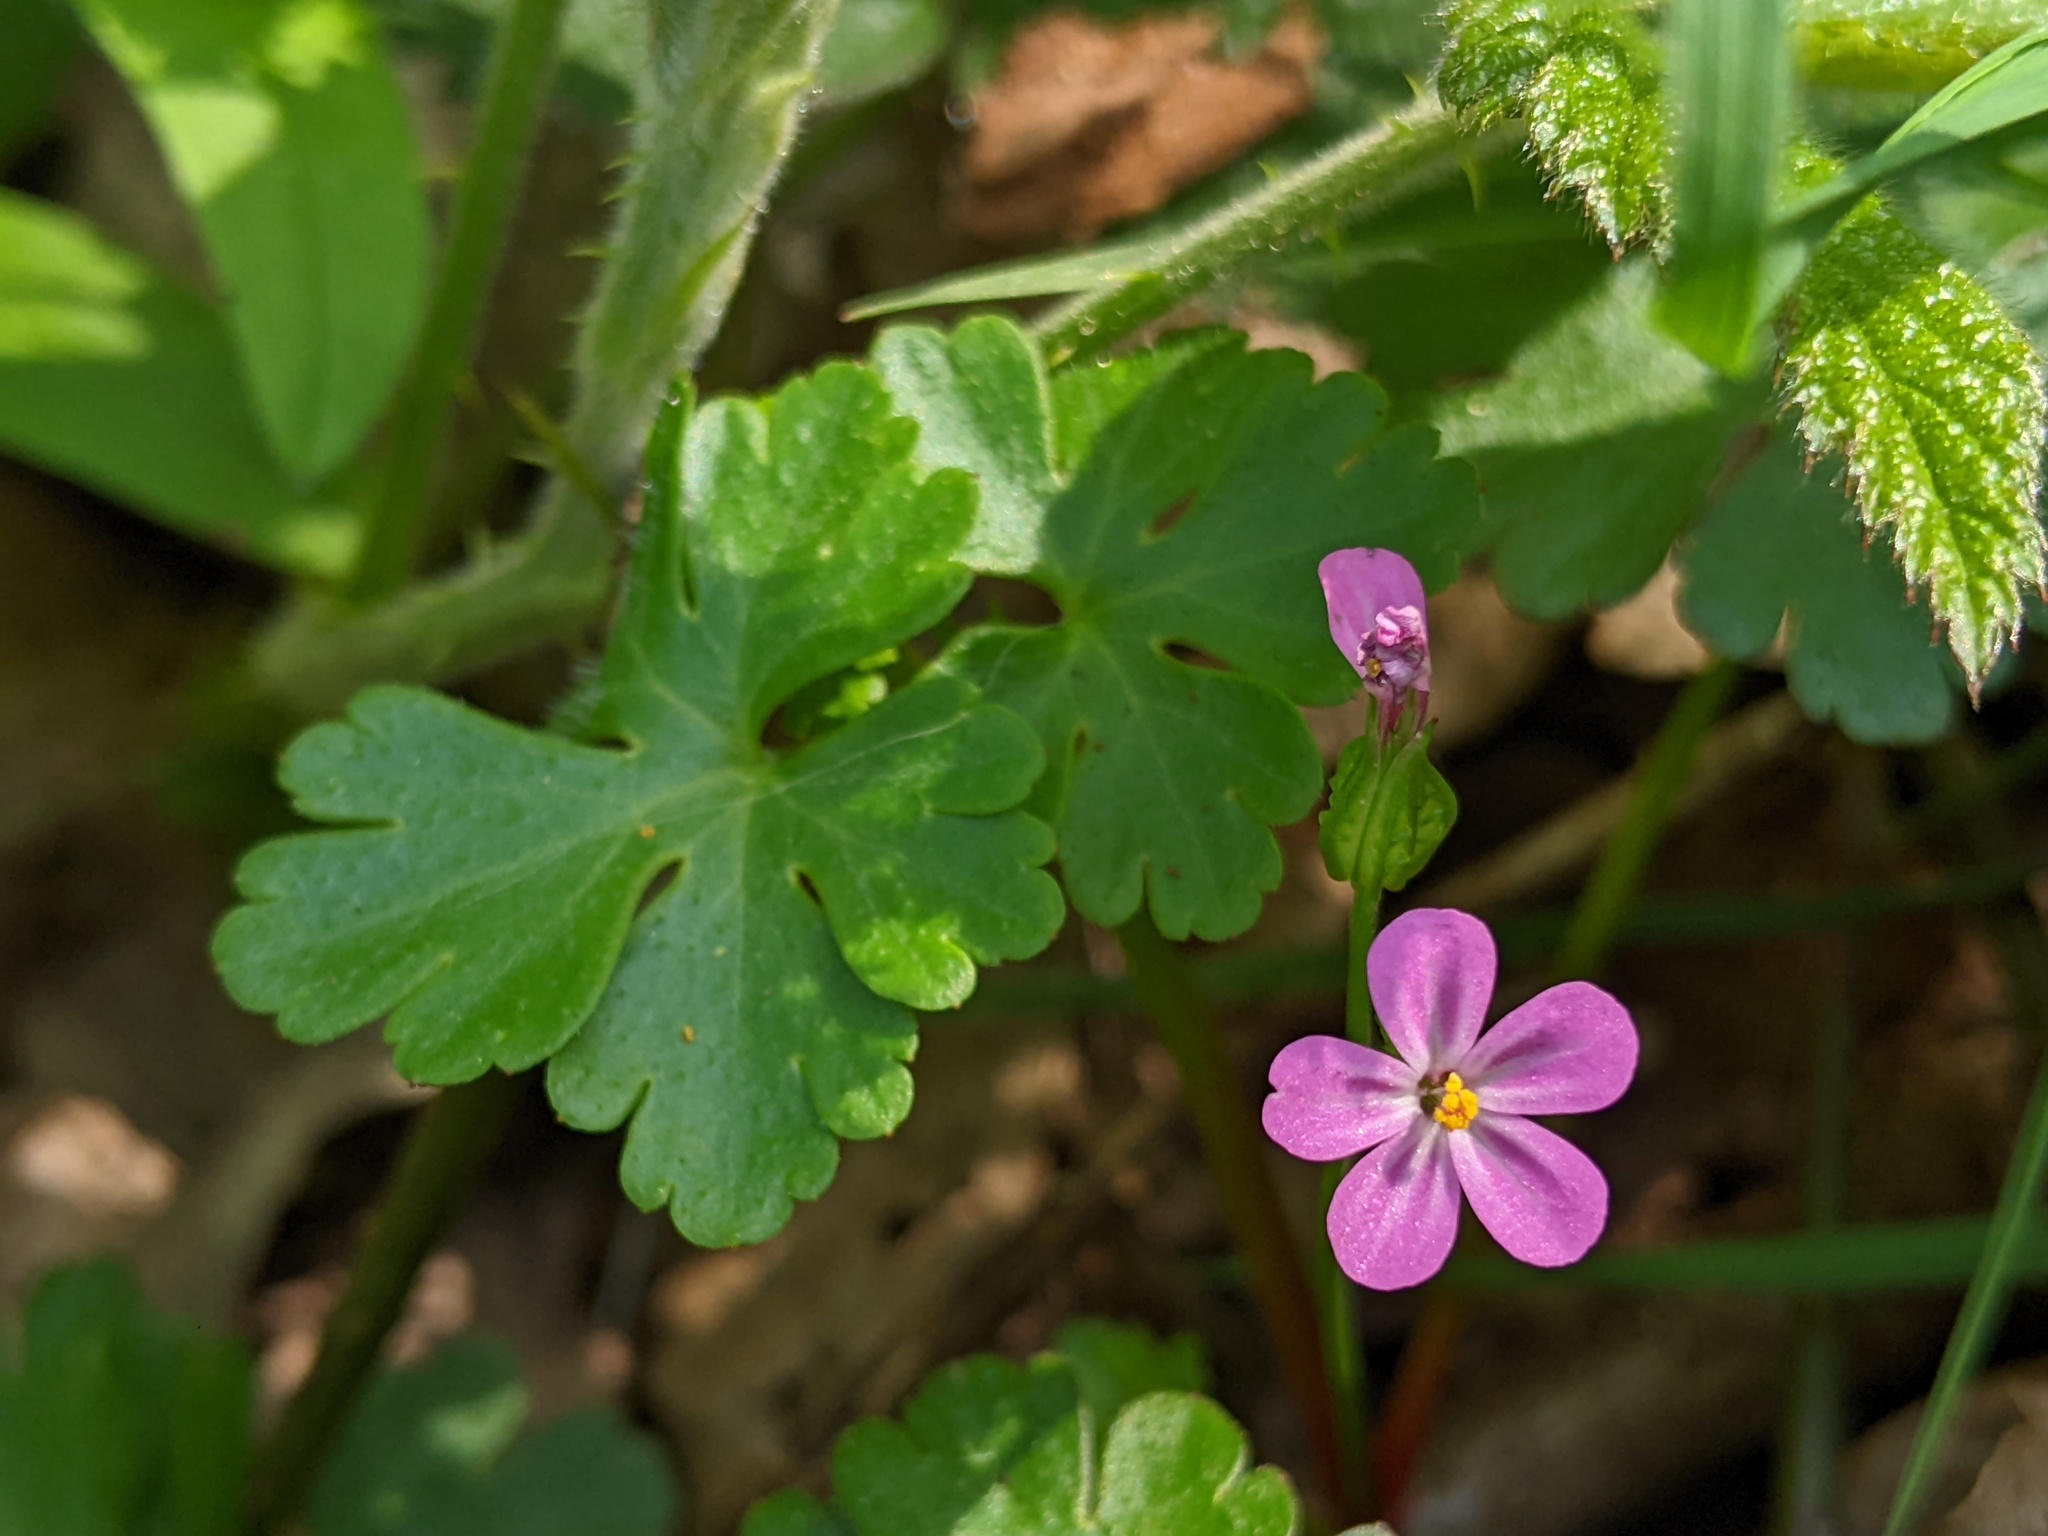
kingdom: Plantae
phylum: Tracheophyta
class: Magnoliopsida
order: Geraniales
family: Geraniaceae
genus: Geranium
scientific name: Geranium lucidum
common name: Shining crane's-bill
